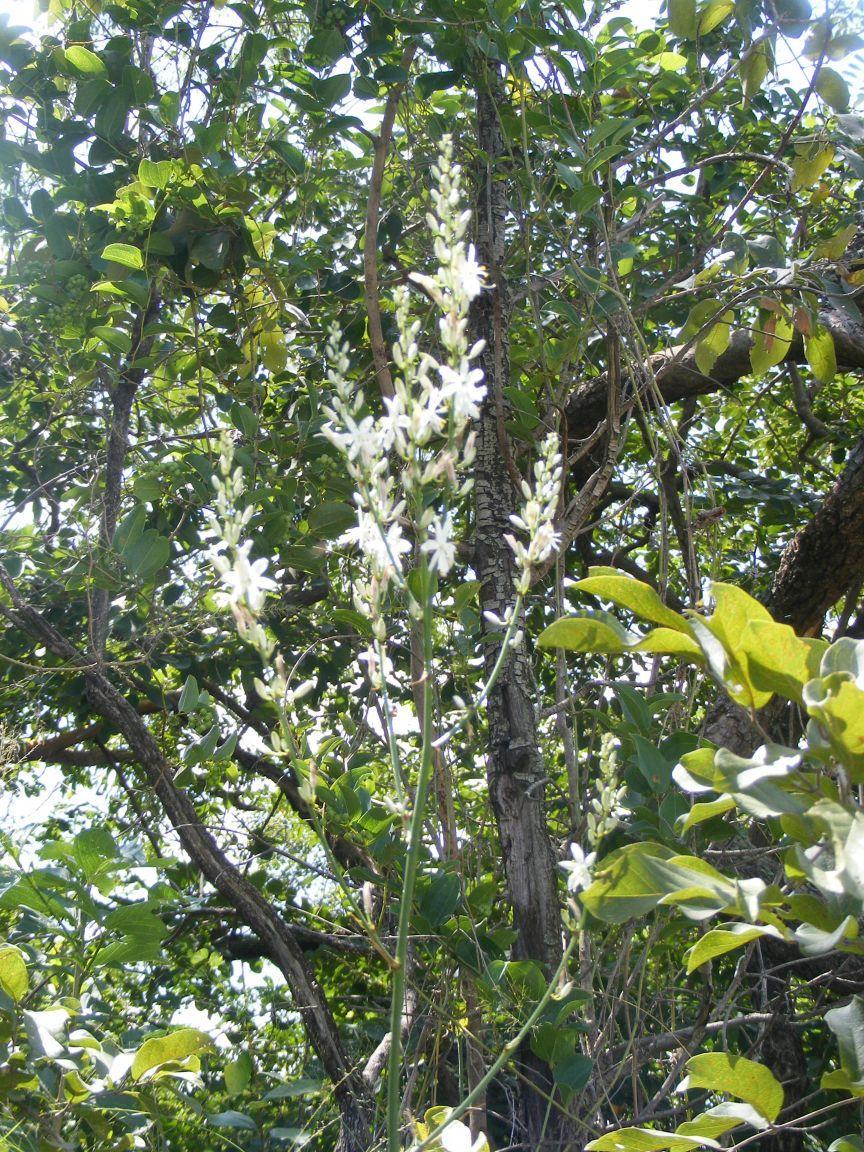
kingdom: Plantae
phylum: Tracheophyta
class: Liliopsida
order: Asparagales
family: Asparagaceae
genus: Chlorophytum
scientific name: Chlorophytum krookianum
